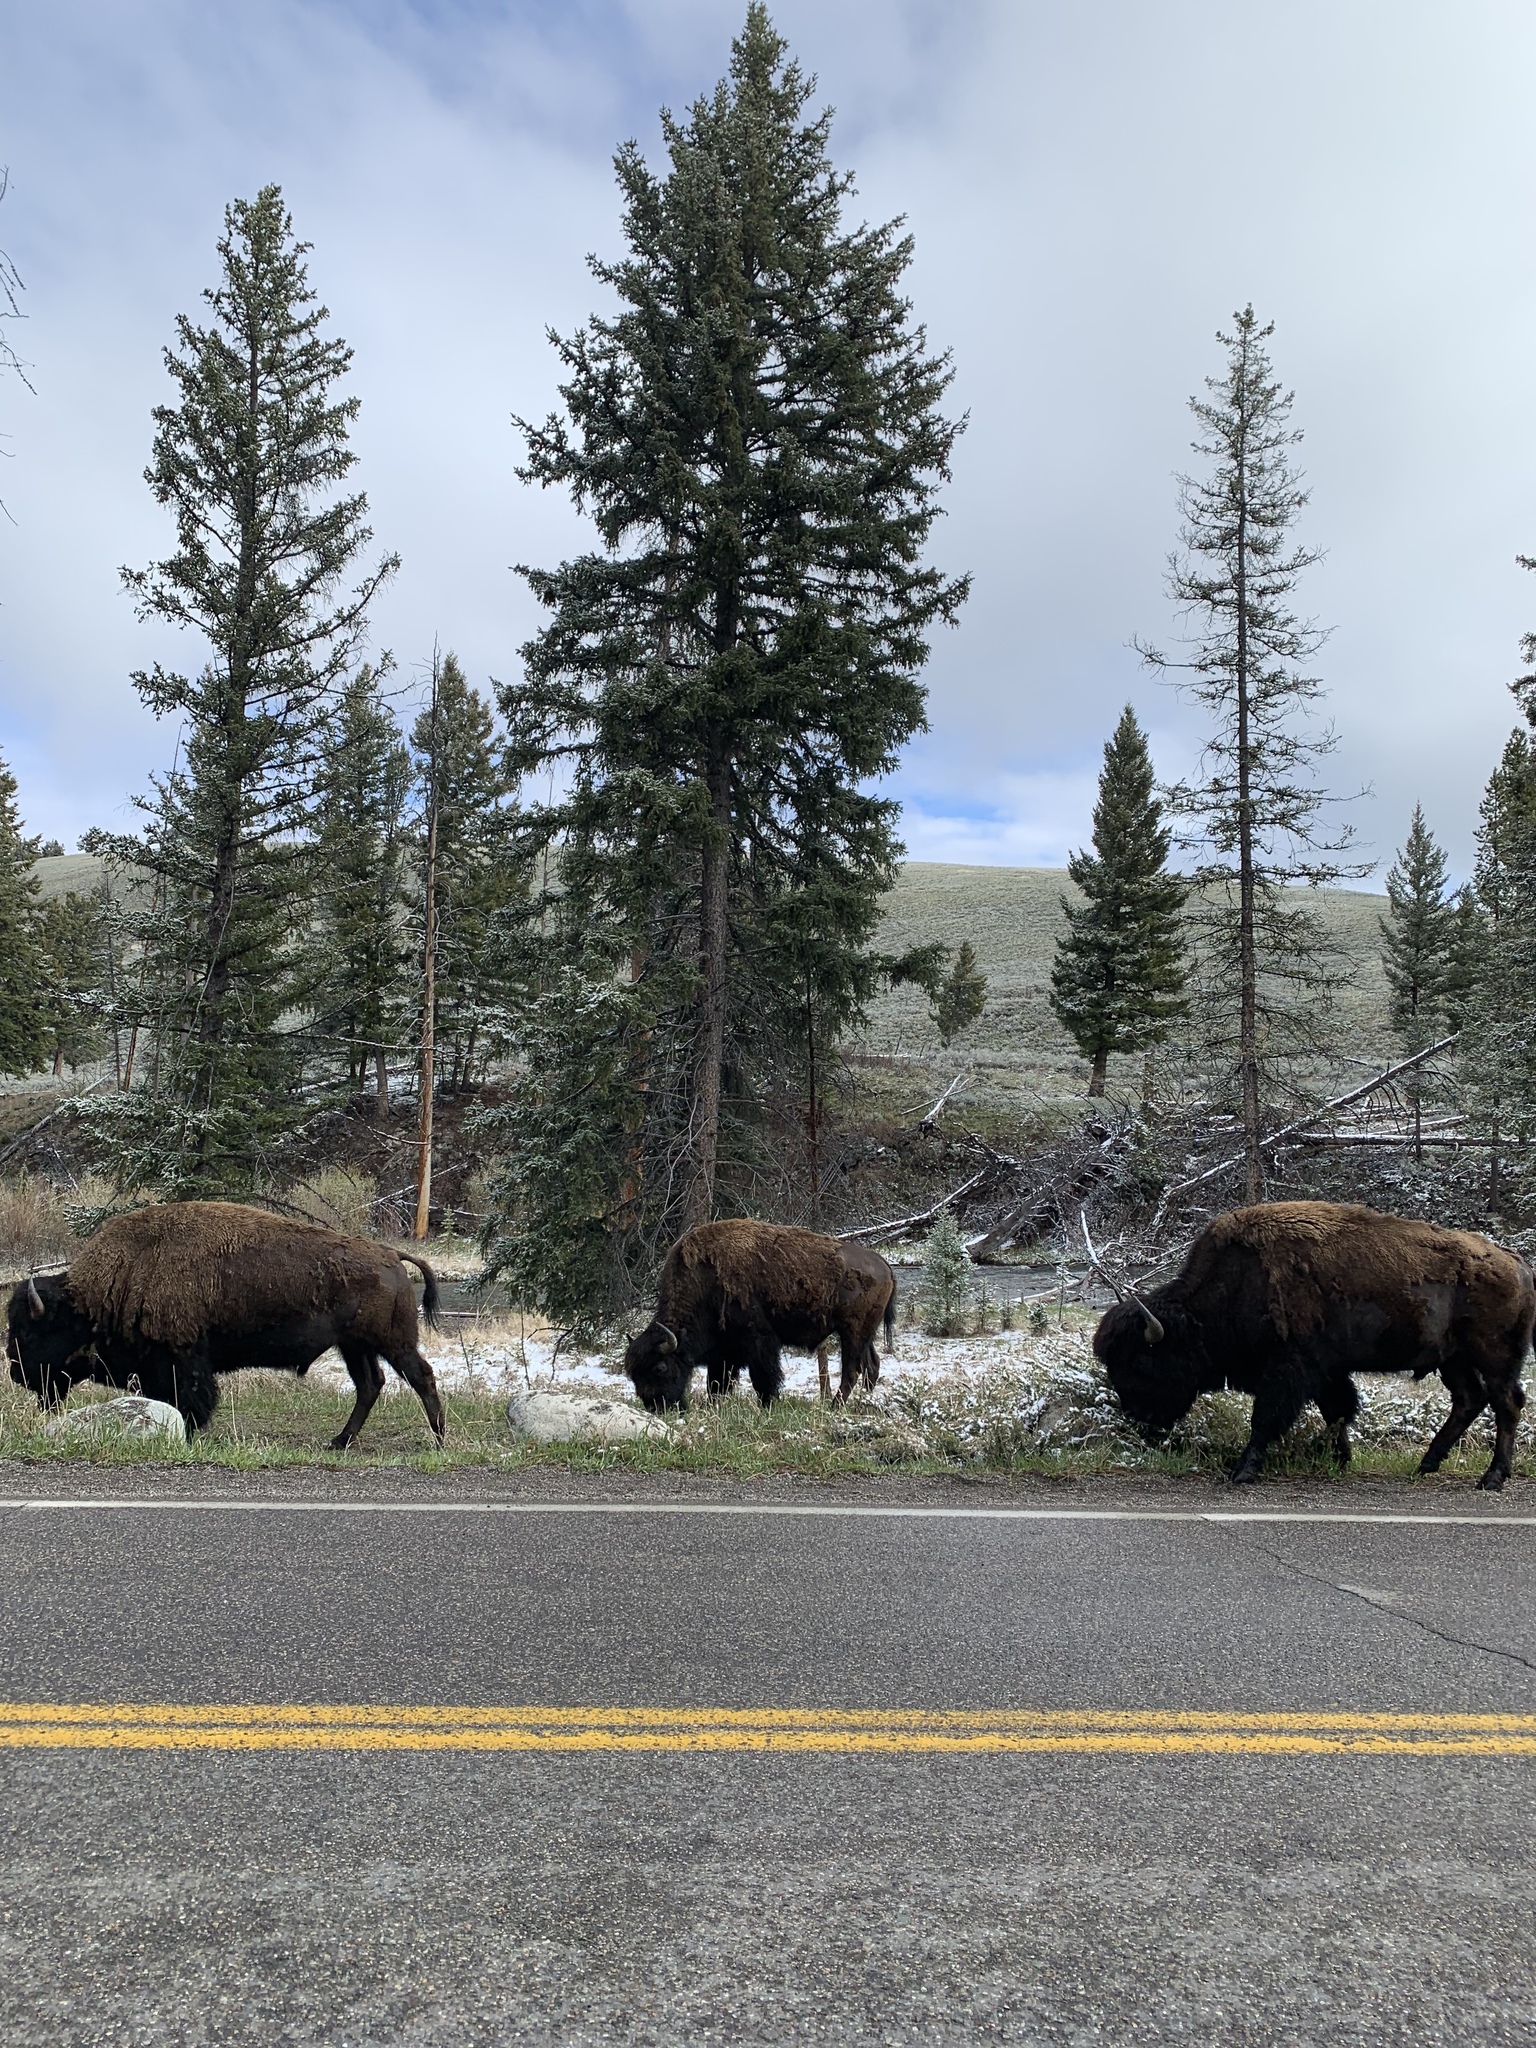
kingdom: Animalia
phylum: Chordata
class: Mammalia
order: Artiodactyla
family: Bovidae
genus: Bison
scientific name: Bison bison
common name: American bison
